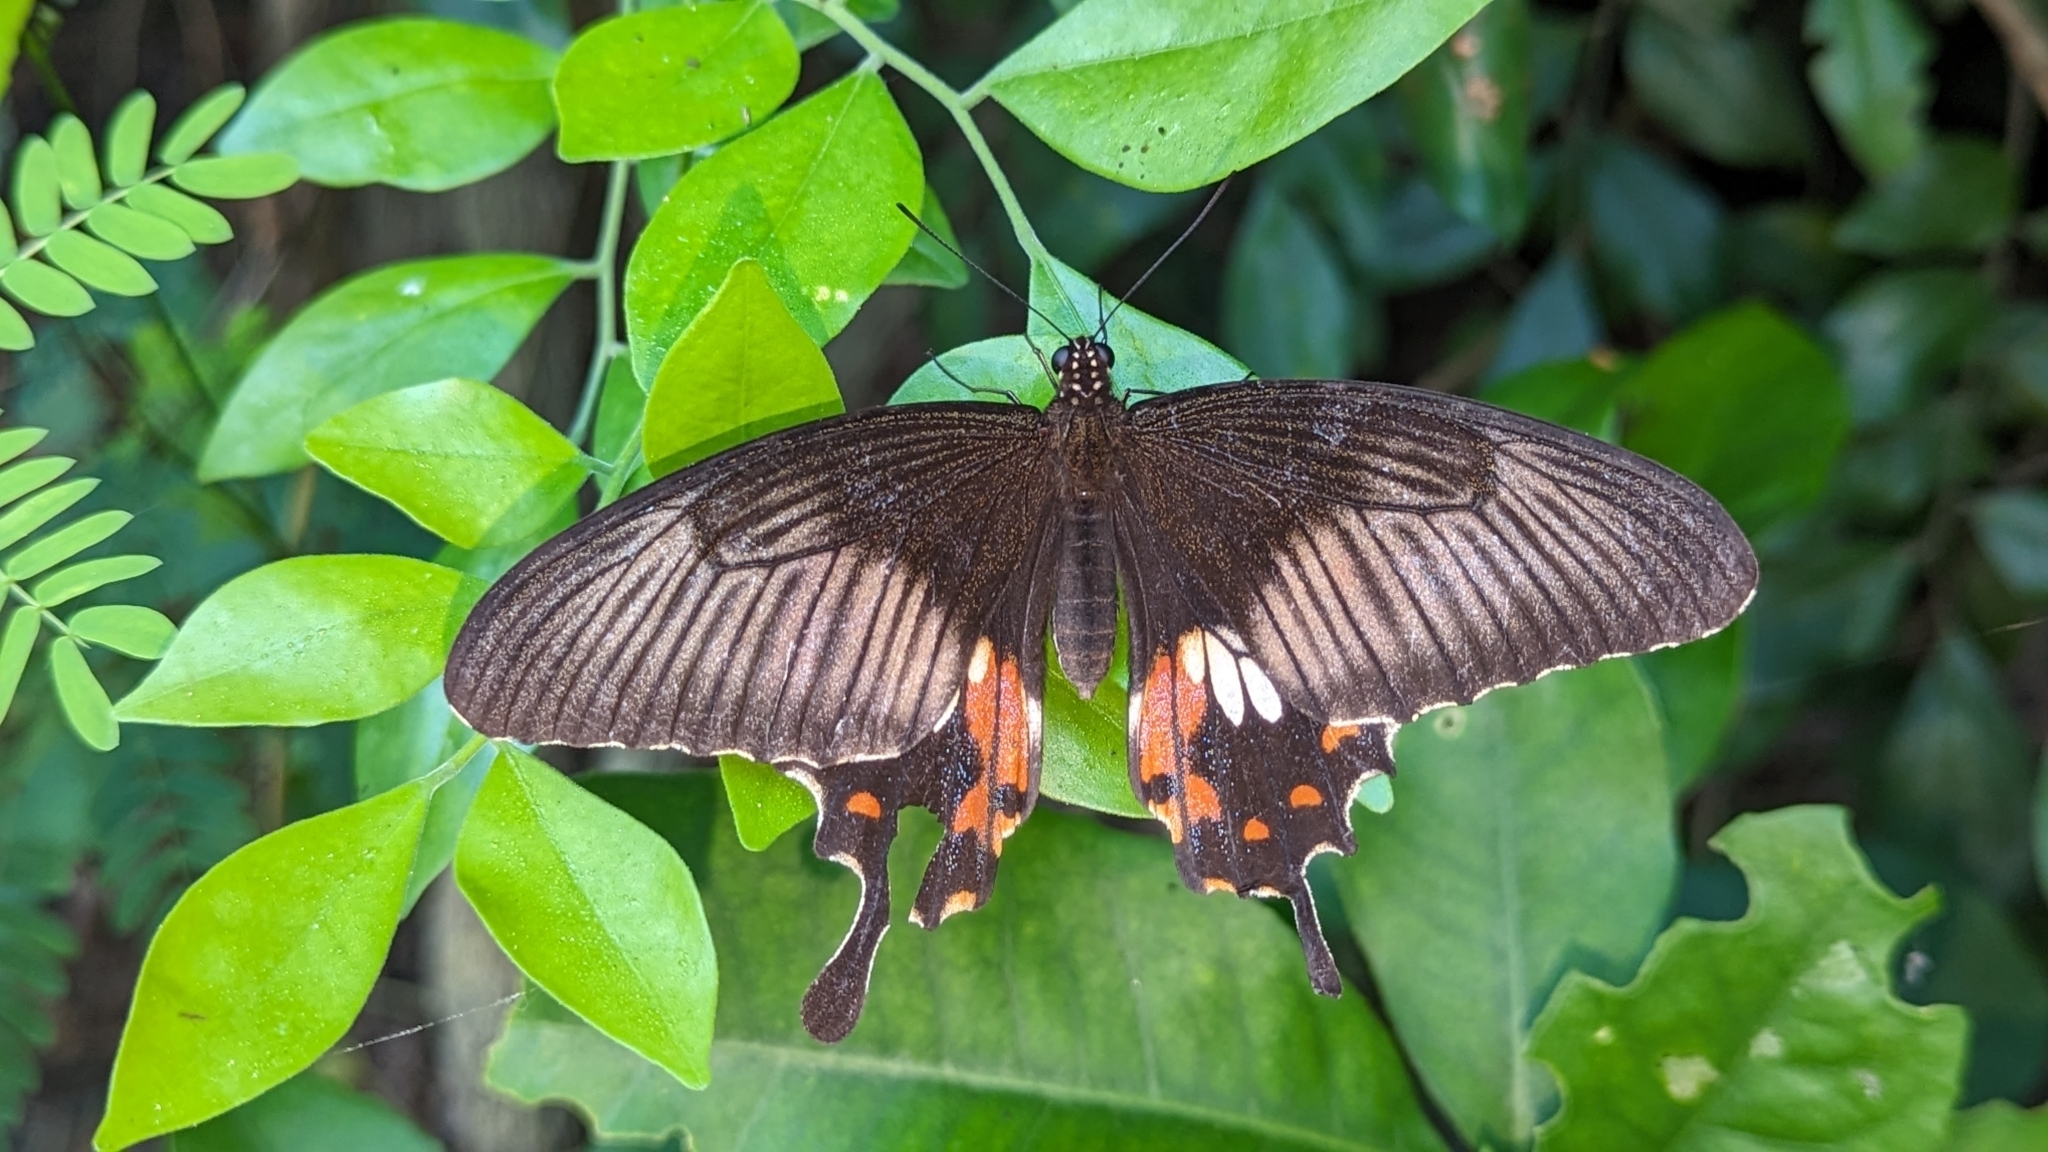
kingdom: Animalia
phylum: Arthropoda
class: Insecta
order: Lepidoptera
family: Papilionidae
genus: Papilio
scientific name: Papilio polytes
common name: Common mormon
